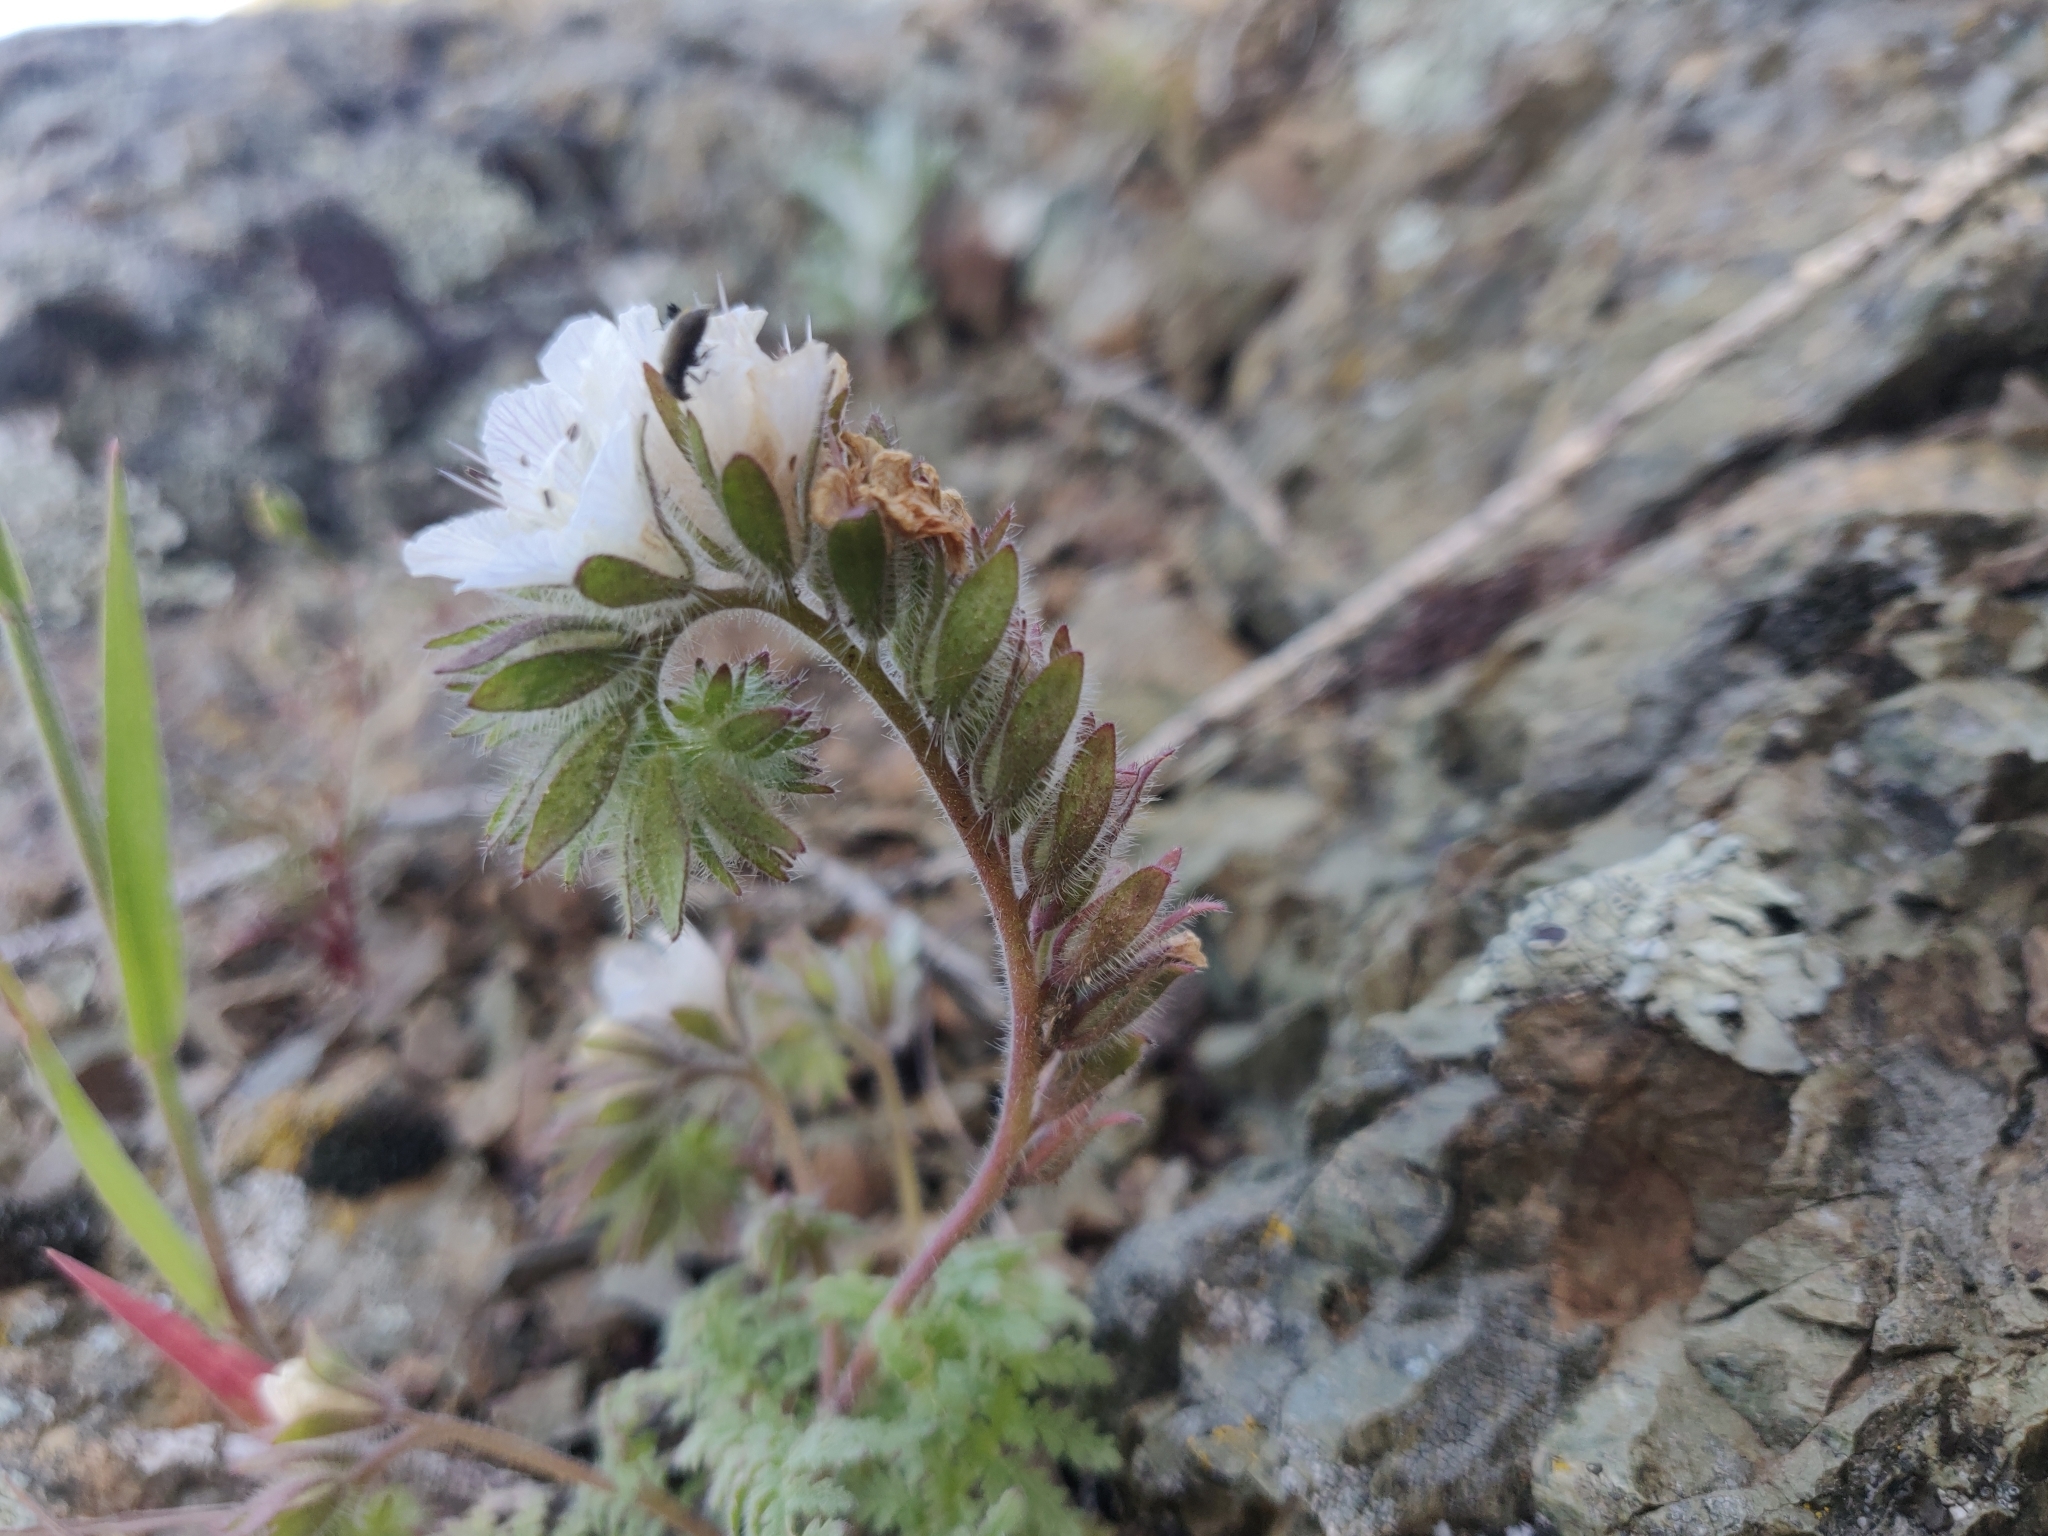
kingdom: Plantae
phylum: Tracheophyta
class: Magnoliopsida
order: Boraginales
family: Hydrophyllaceae
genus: Phacelia
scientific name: Phacelia distans
